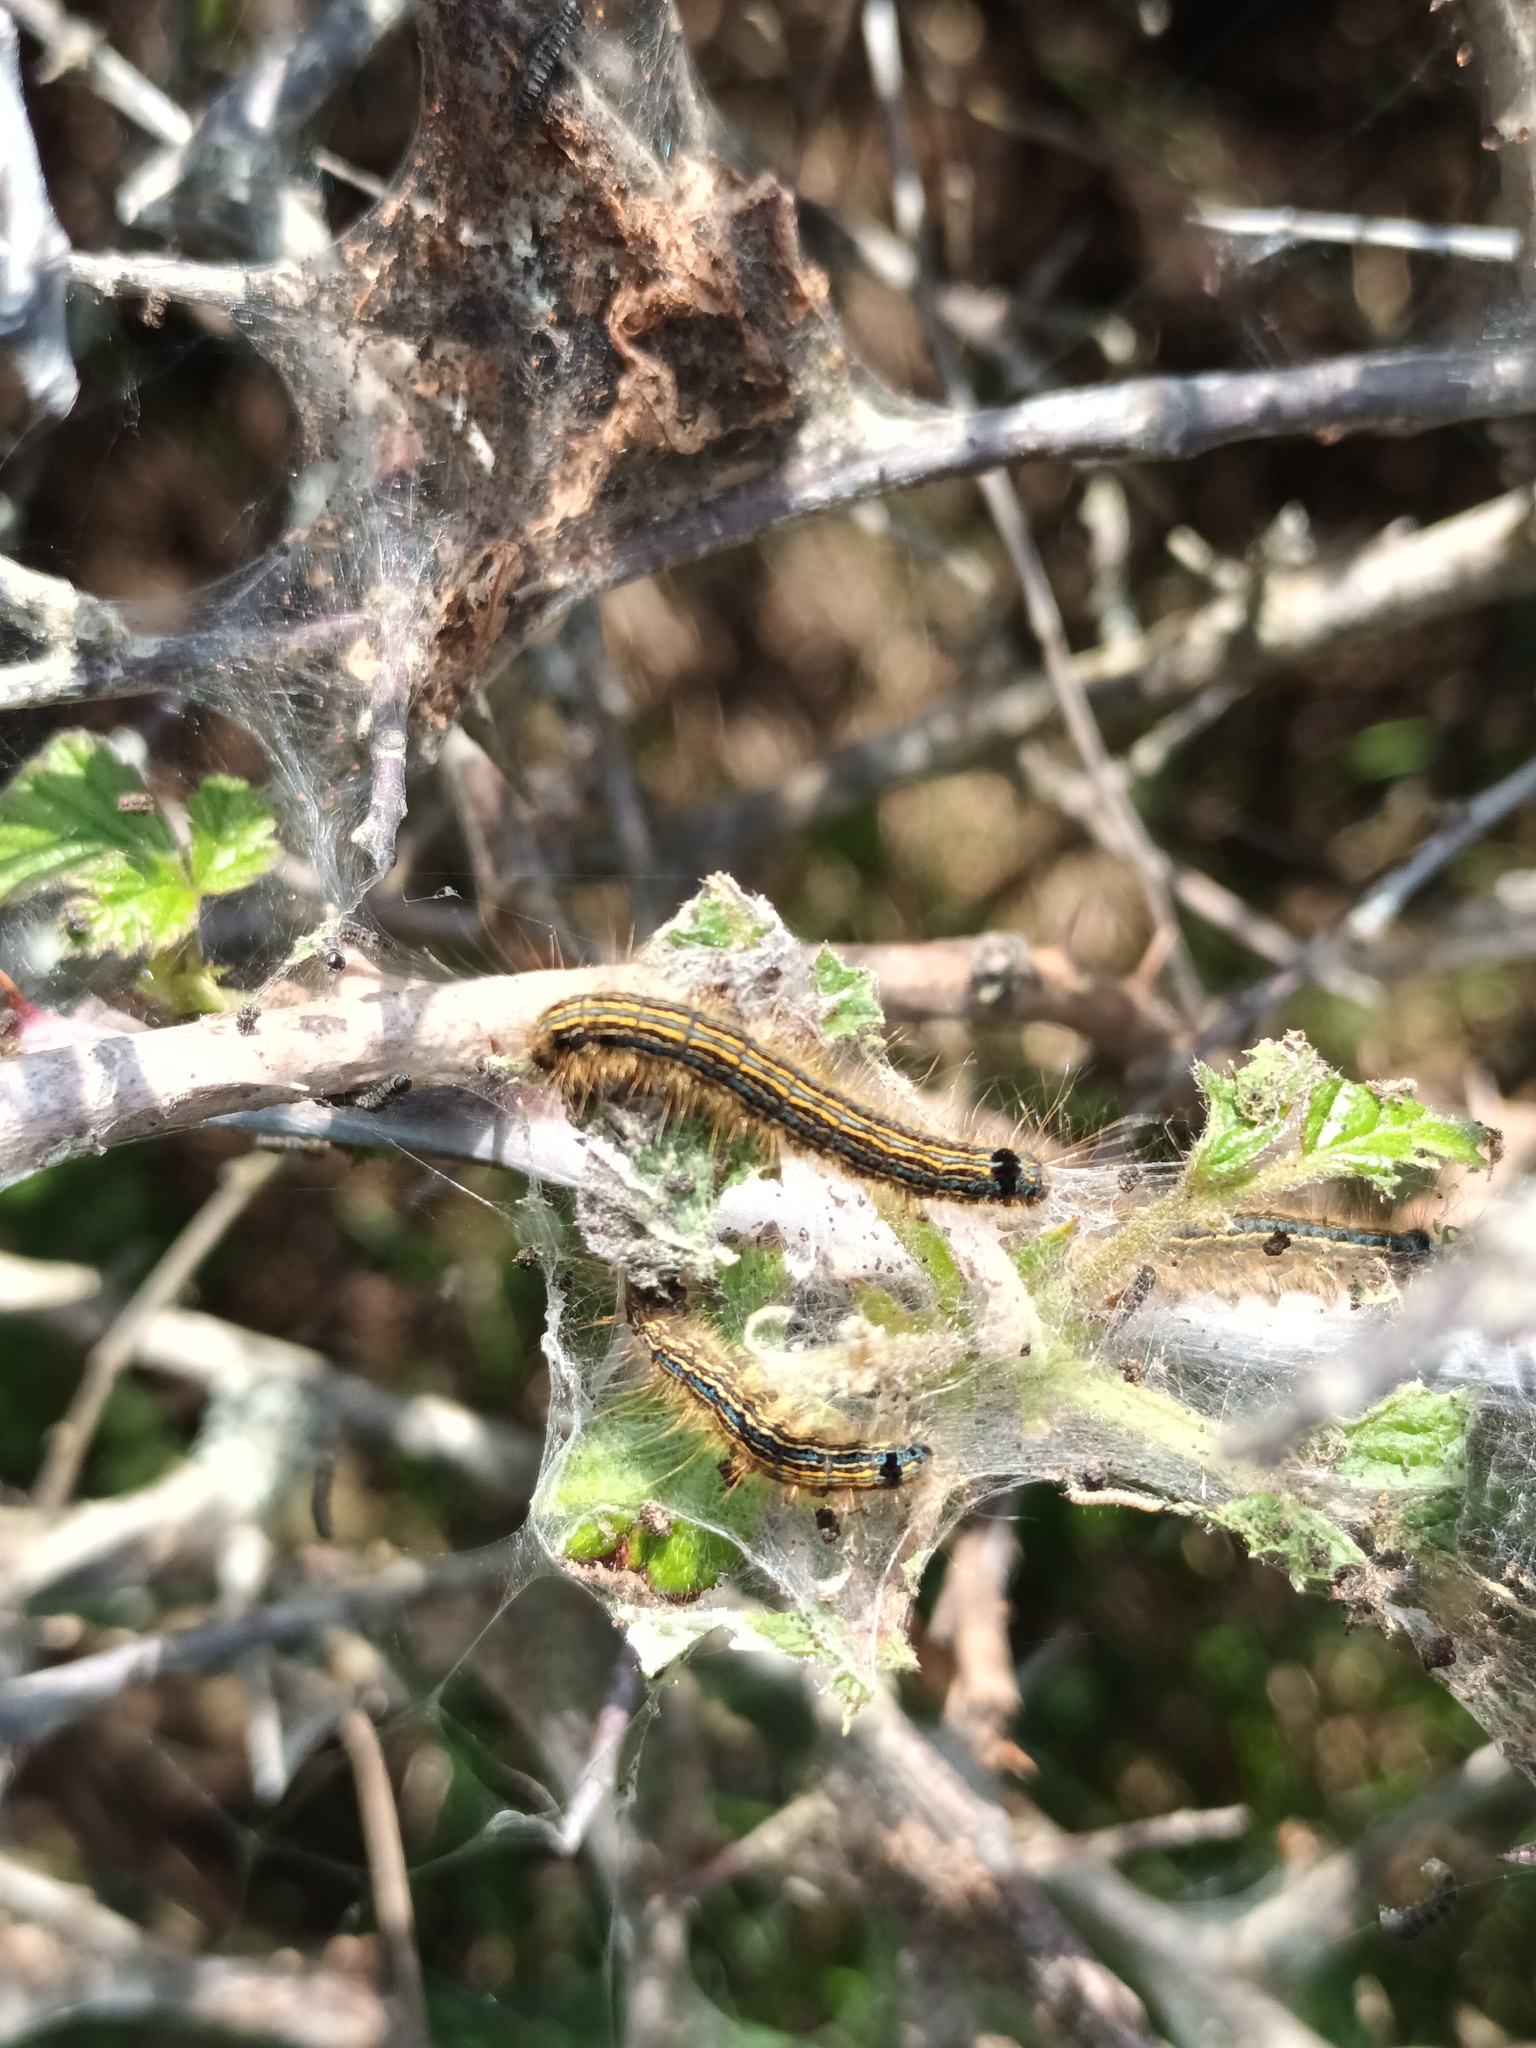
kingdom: Animalia
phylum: Arthropoda
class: Insecta
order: Lepidoptera
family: Lasiocampidae
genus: Malacosoma
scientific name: Malacosoma neustria
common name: The lackey
